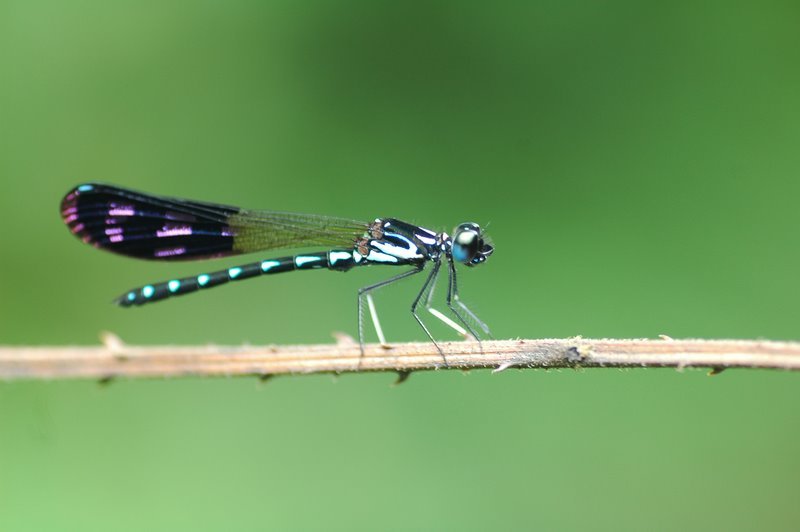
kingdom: Animalia
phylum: Arthropoda
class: Insecta
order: Odonata
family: Chlorocyphidae
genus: Heliocypha
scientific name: Heliocypha perforata
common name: Common blue jewel
